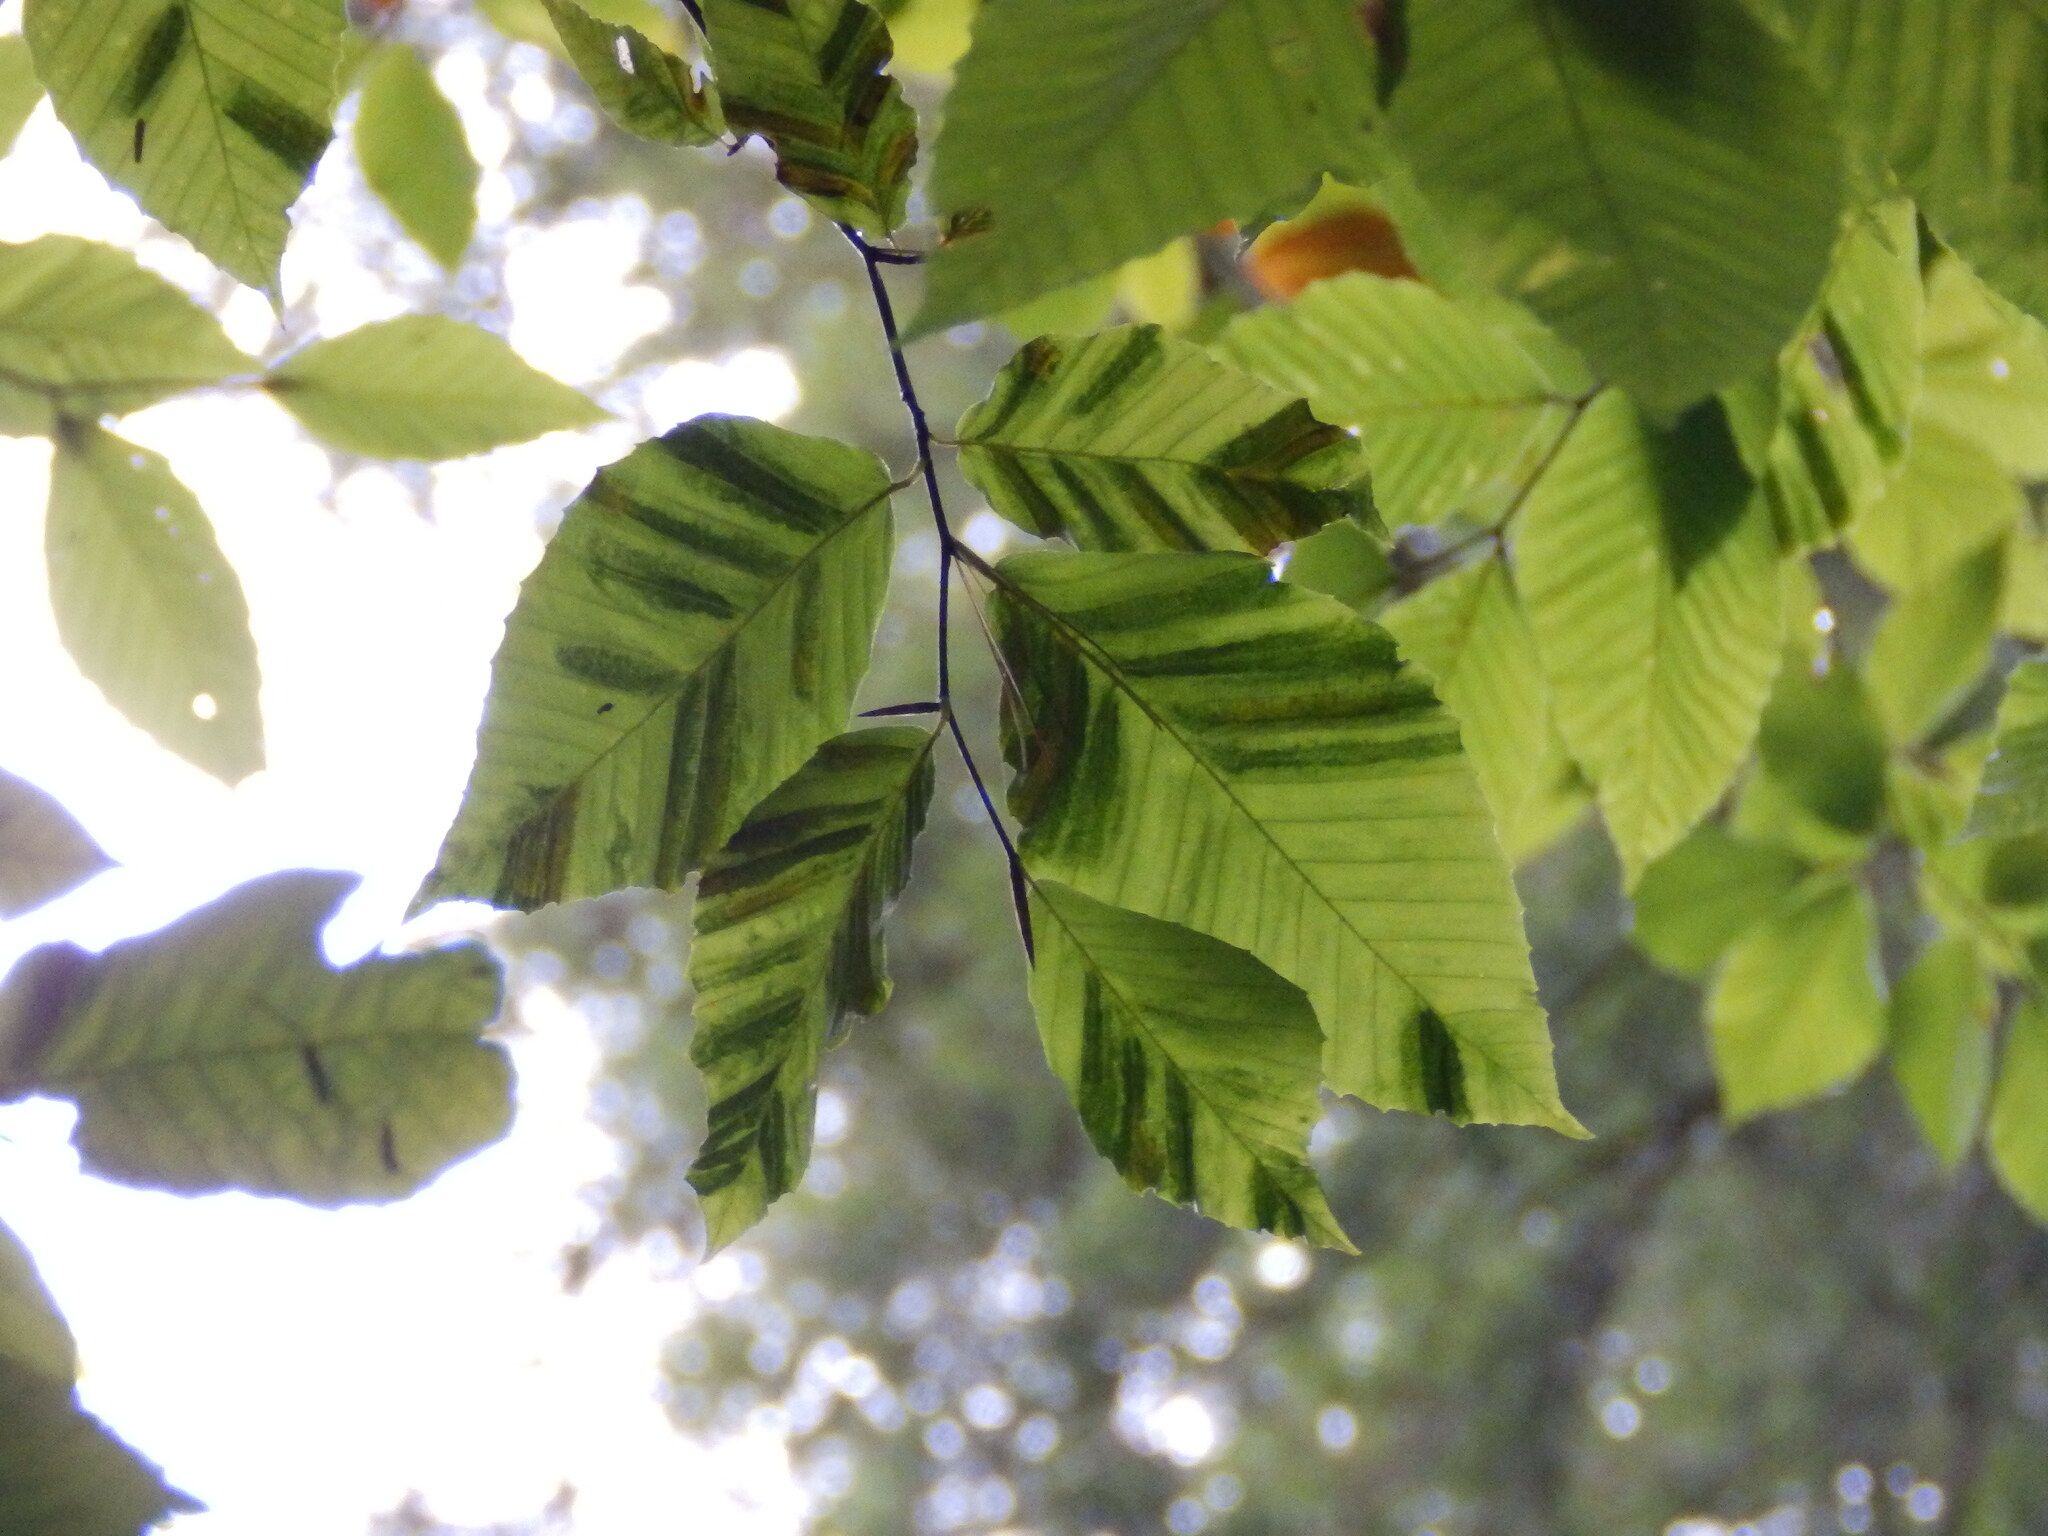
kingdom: Animalia
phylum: Nematoda
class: Chromadorea
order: Rhabditida
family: Anguinidae
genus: Litylenchus
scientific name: Litylenchus crenatae
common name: Beech leaf disease
